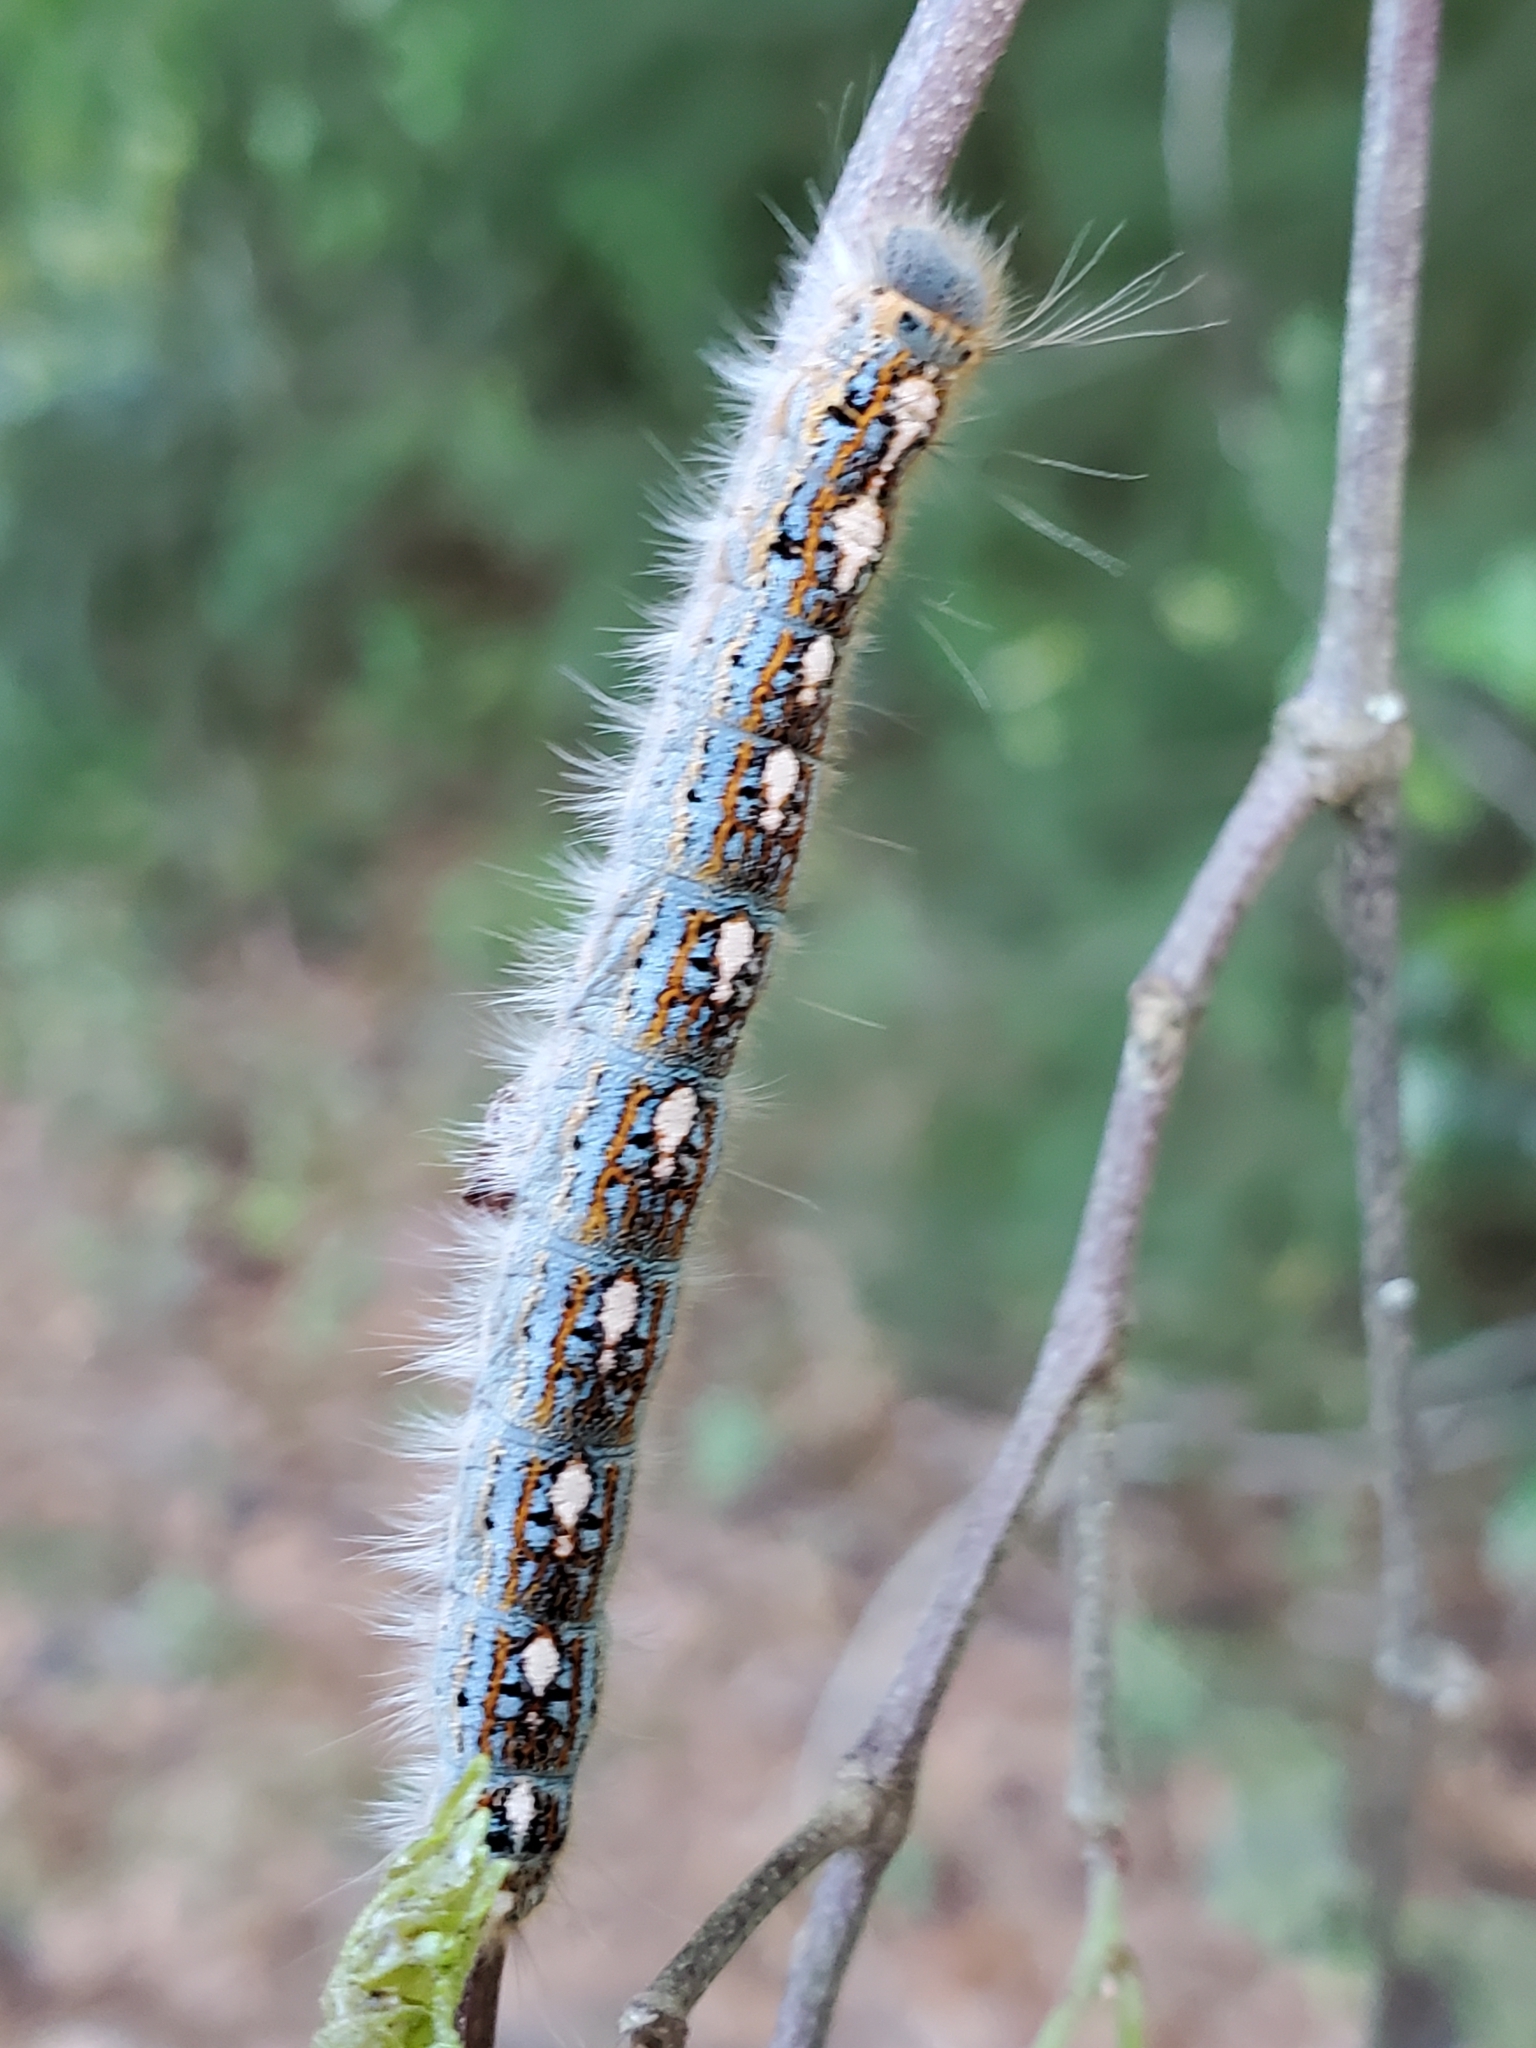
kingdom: Animalia
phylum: Arthropoda
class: Insecta
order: Lepidoptera
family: Lasiocampidae
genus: Malacosoma
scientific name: Malacosoma disstria
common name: Forest tent caterpillar
